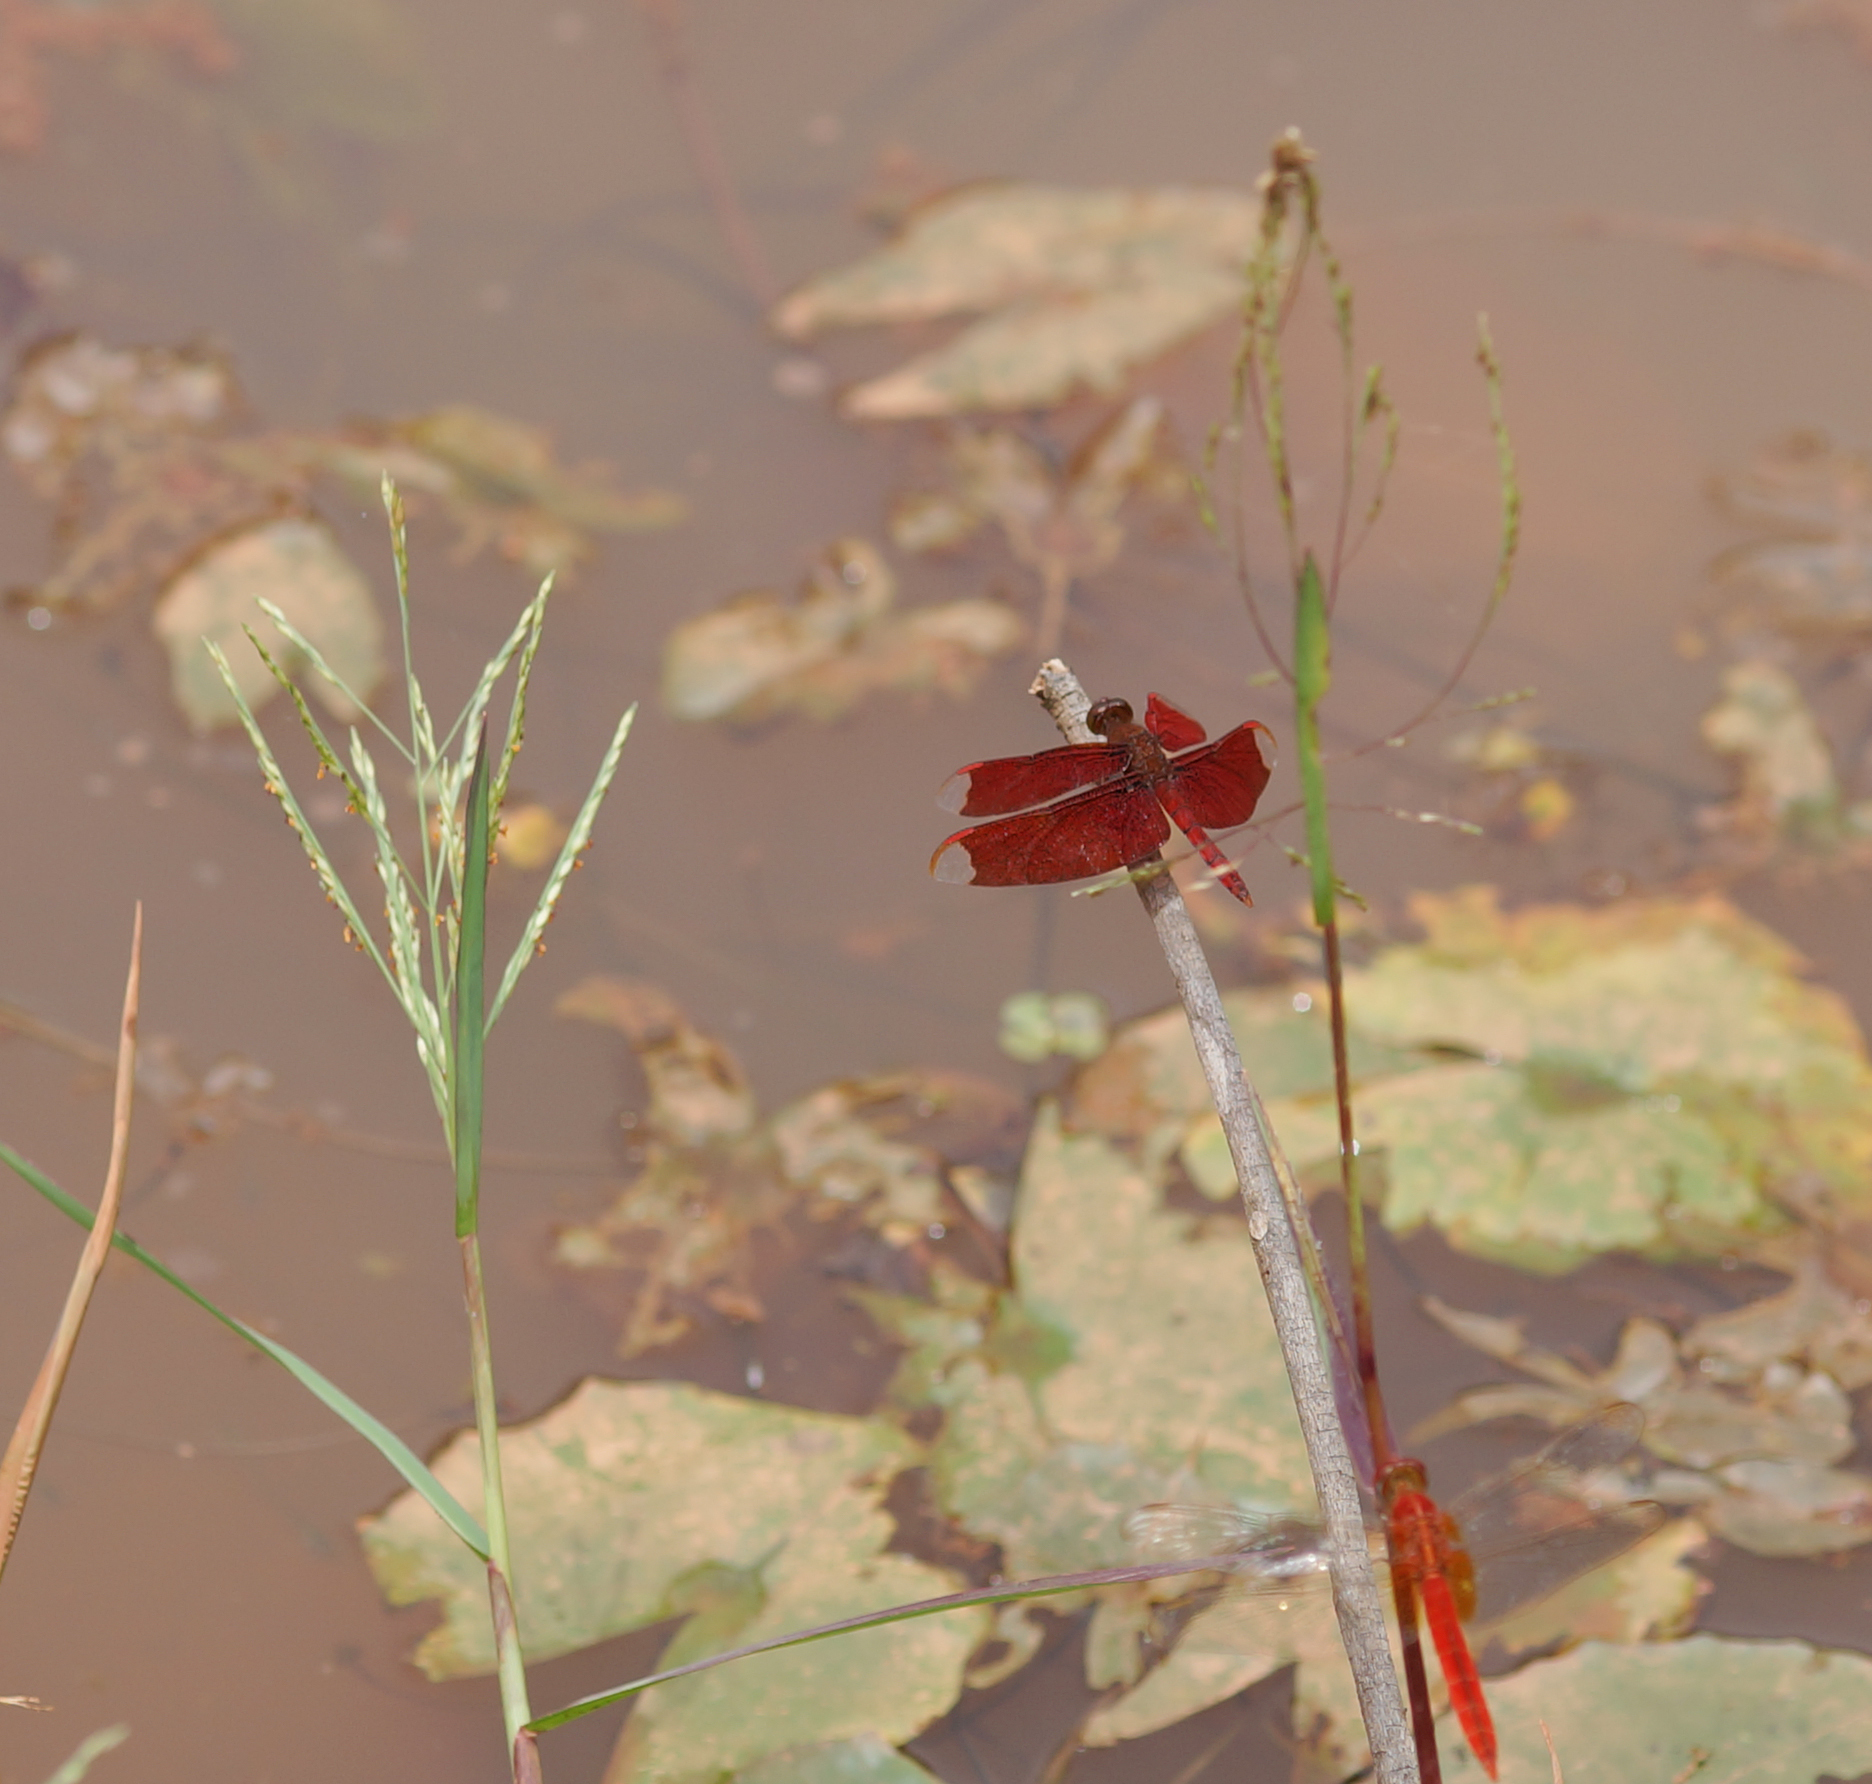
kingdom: Animalia
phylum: Arthropoda
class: Insecta
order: Odonata
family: Libellulidae
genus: Neurothemis
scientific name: Neurothemis fulvia
